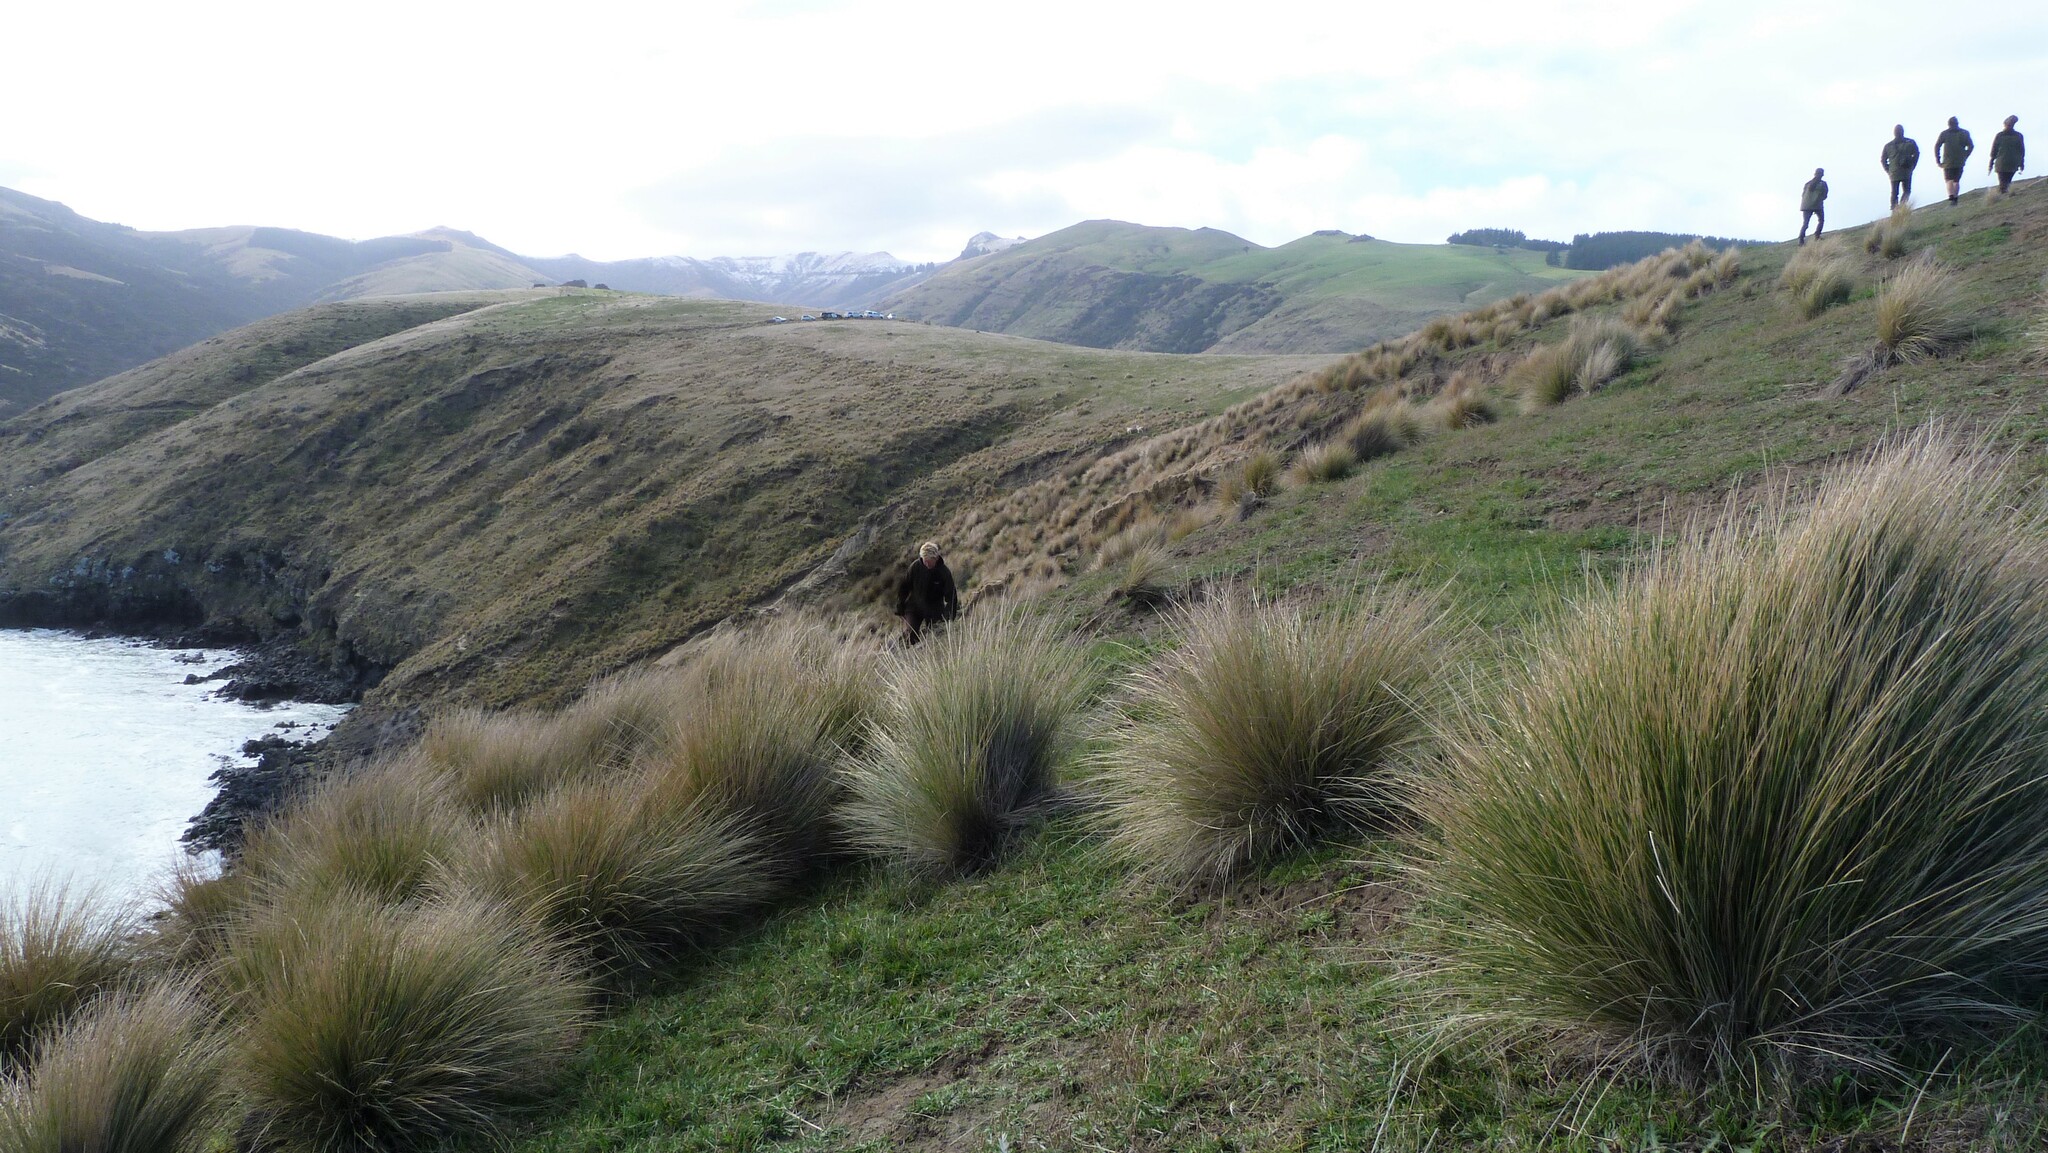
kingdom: Plantae
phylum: Tracheophyta
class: Liliopsida
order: Poales
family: Poaceae
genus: Poa
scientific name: Poa cita
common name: Silver tussock
